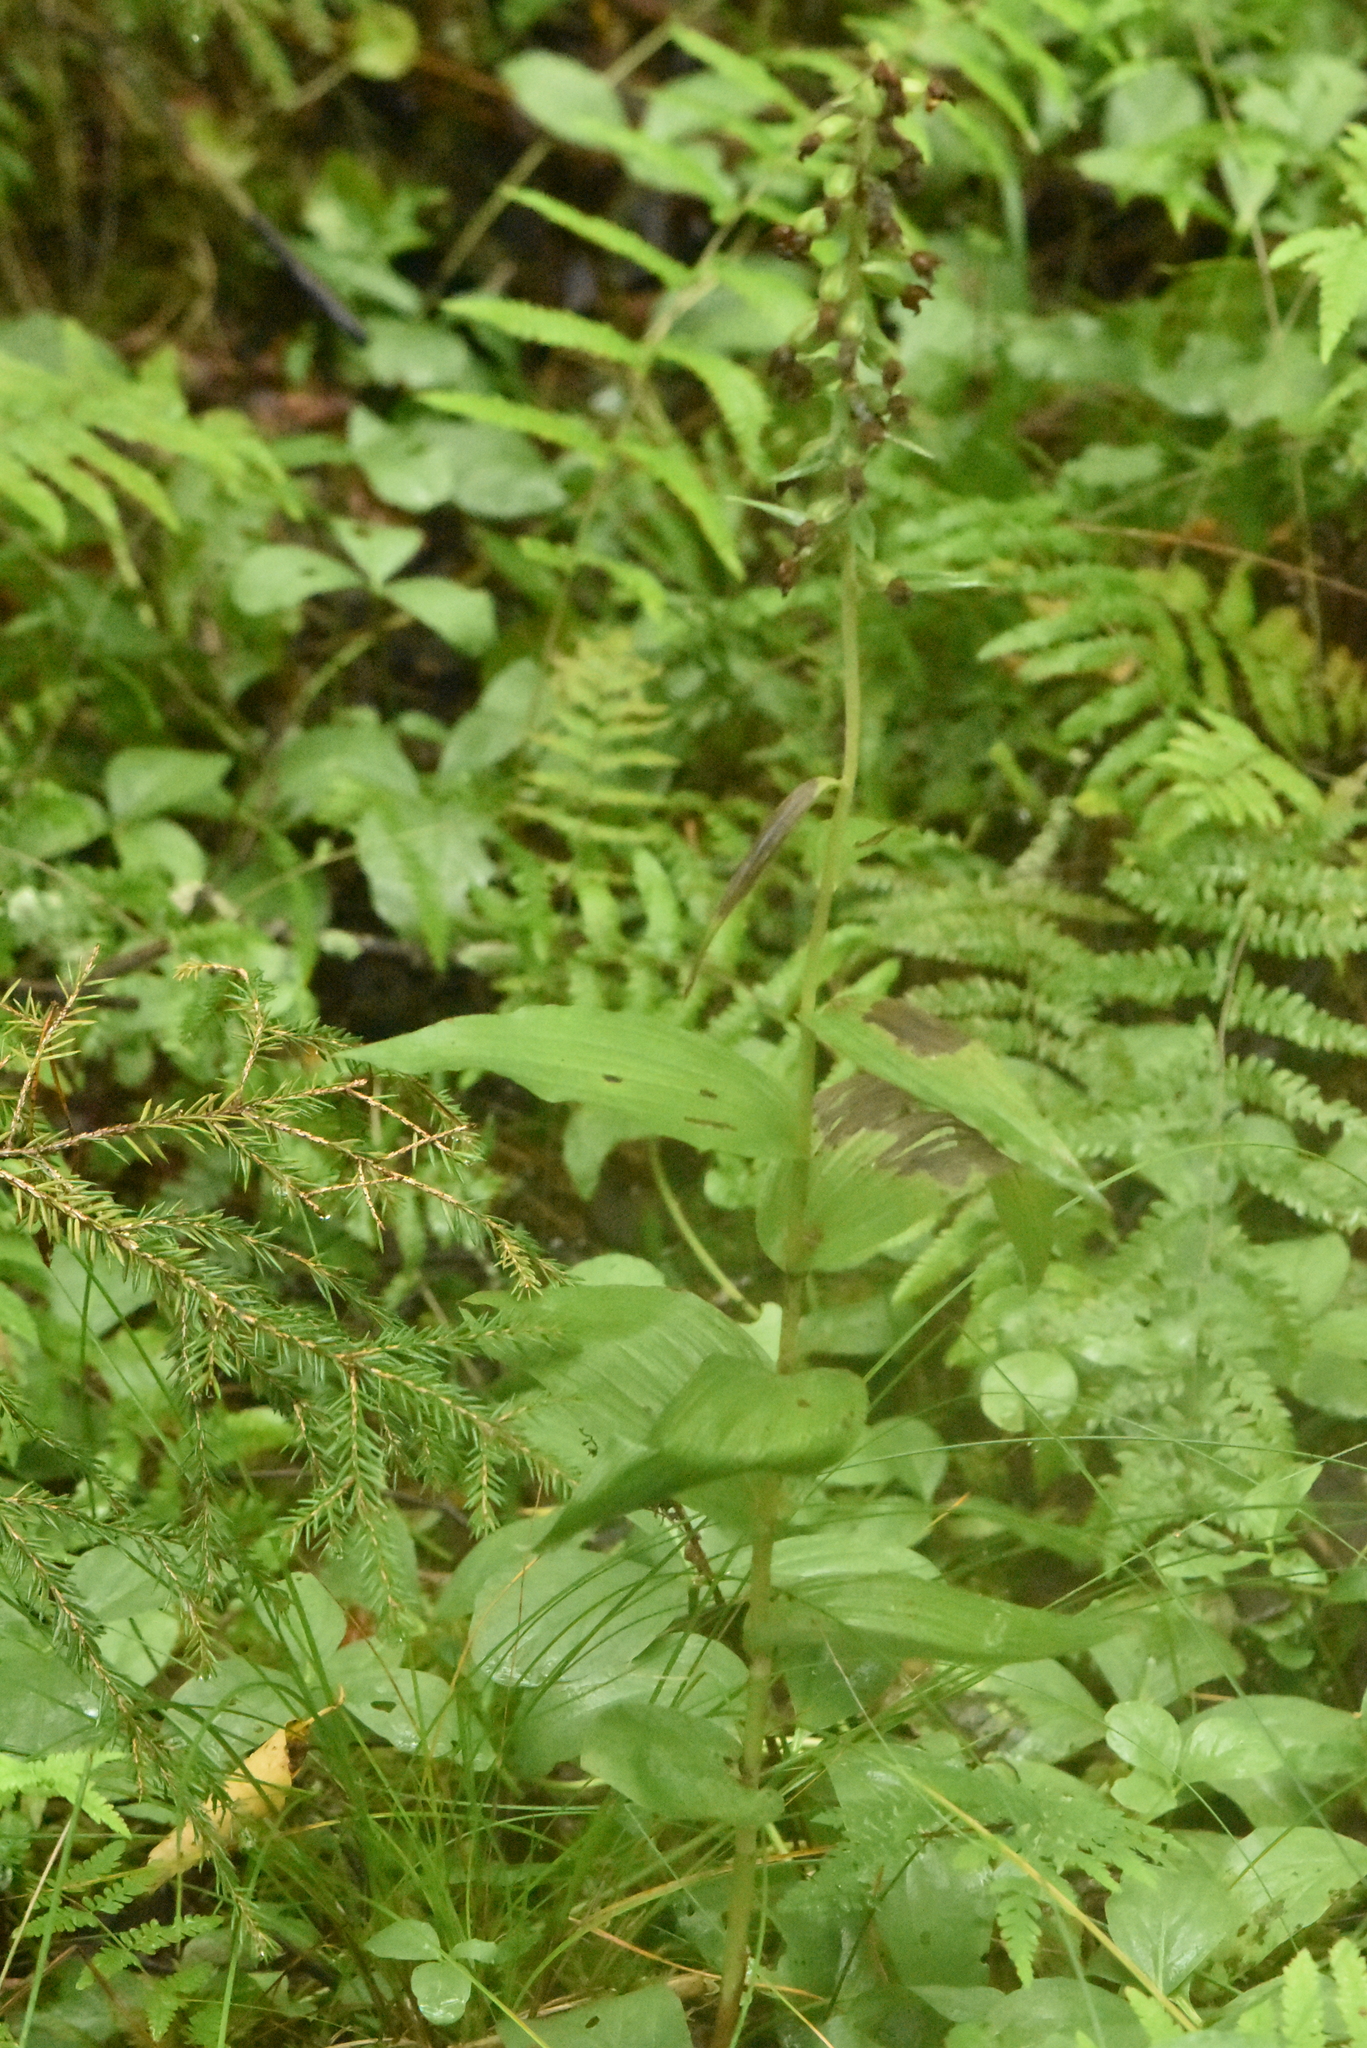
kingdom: Plantae
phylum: Tracheophyta
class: Liliopsida
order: Asparagales
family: Orchidaceae
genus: Epipactis
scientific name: Epipactis helleborine
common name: Broad-leaved helleborine
